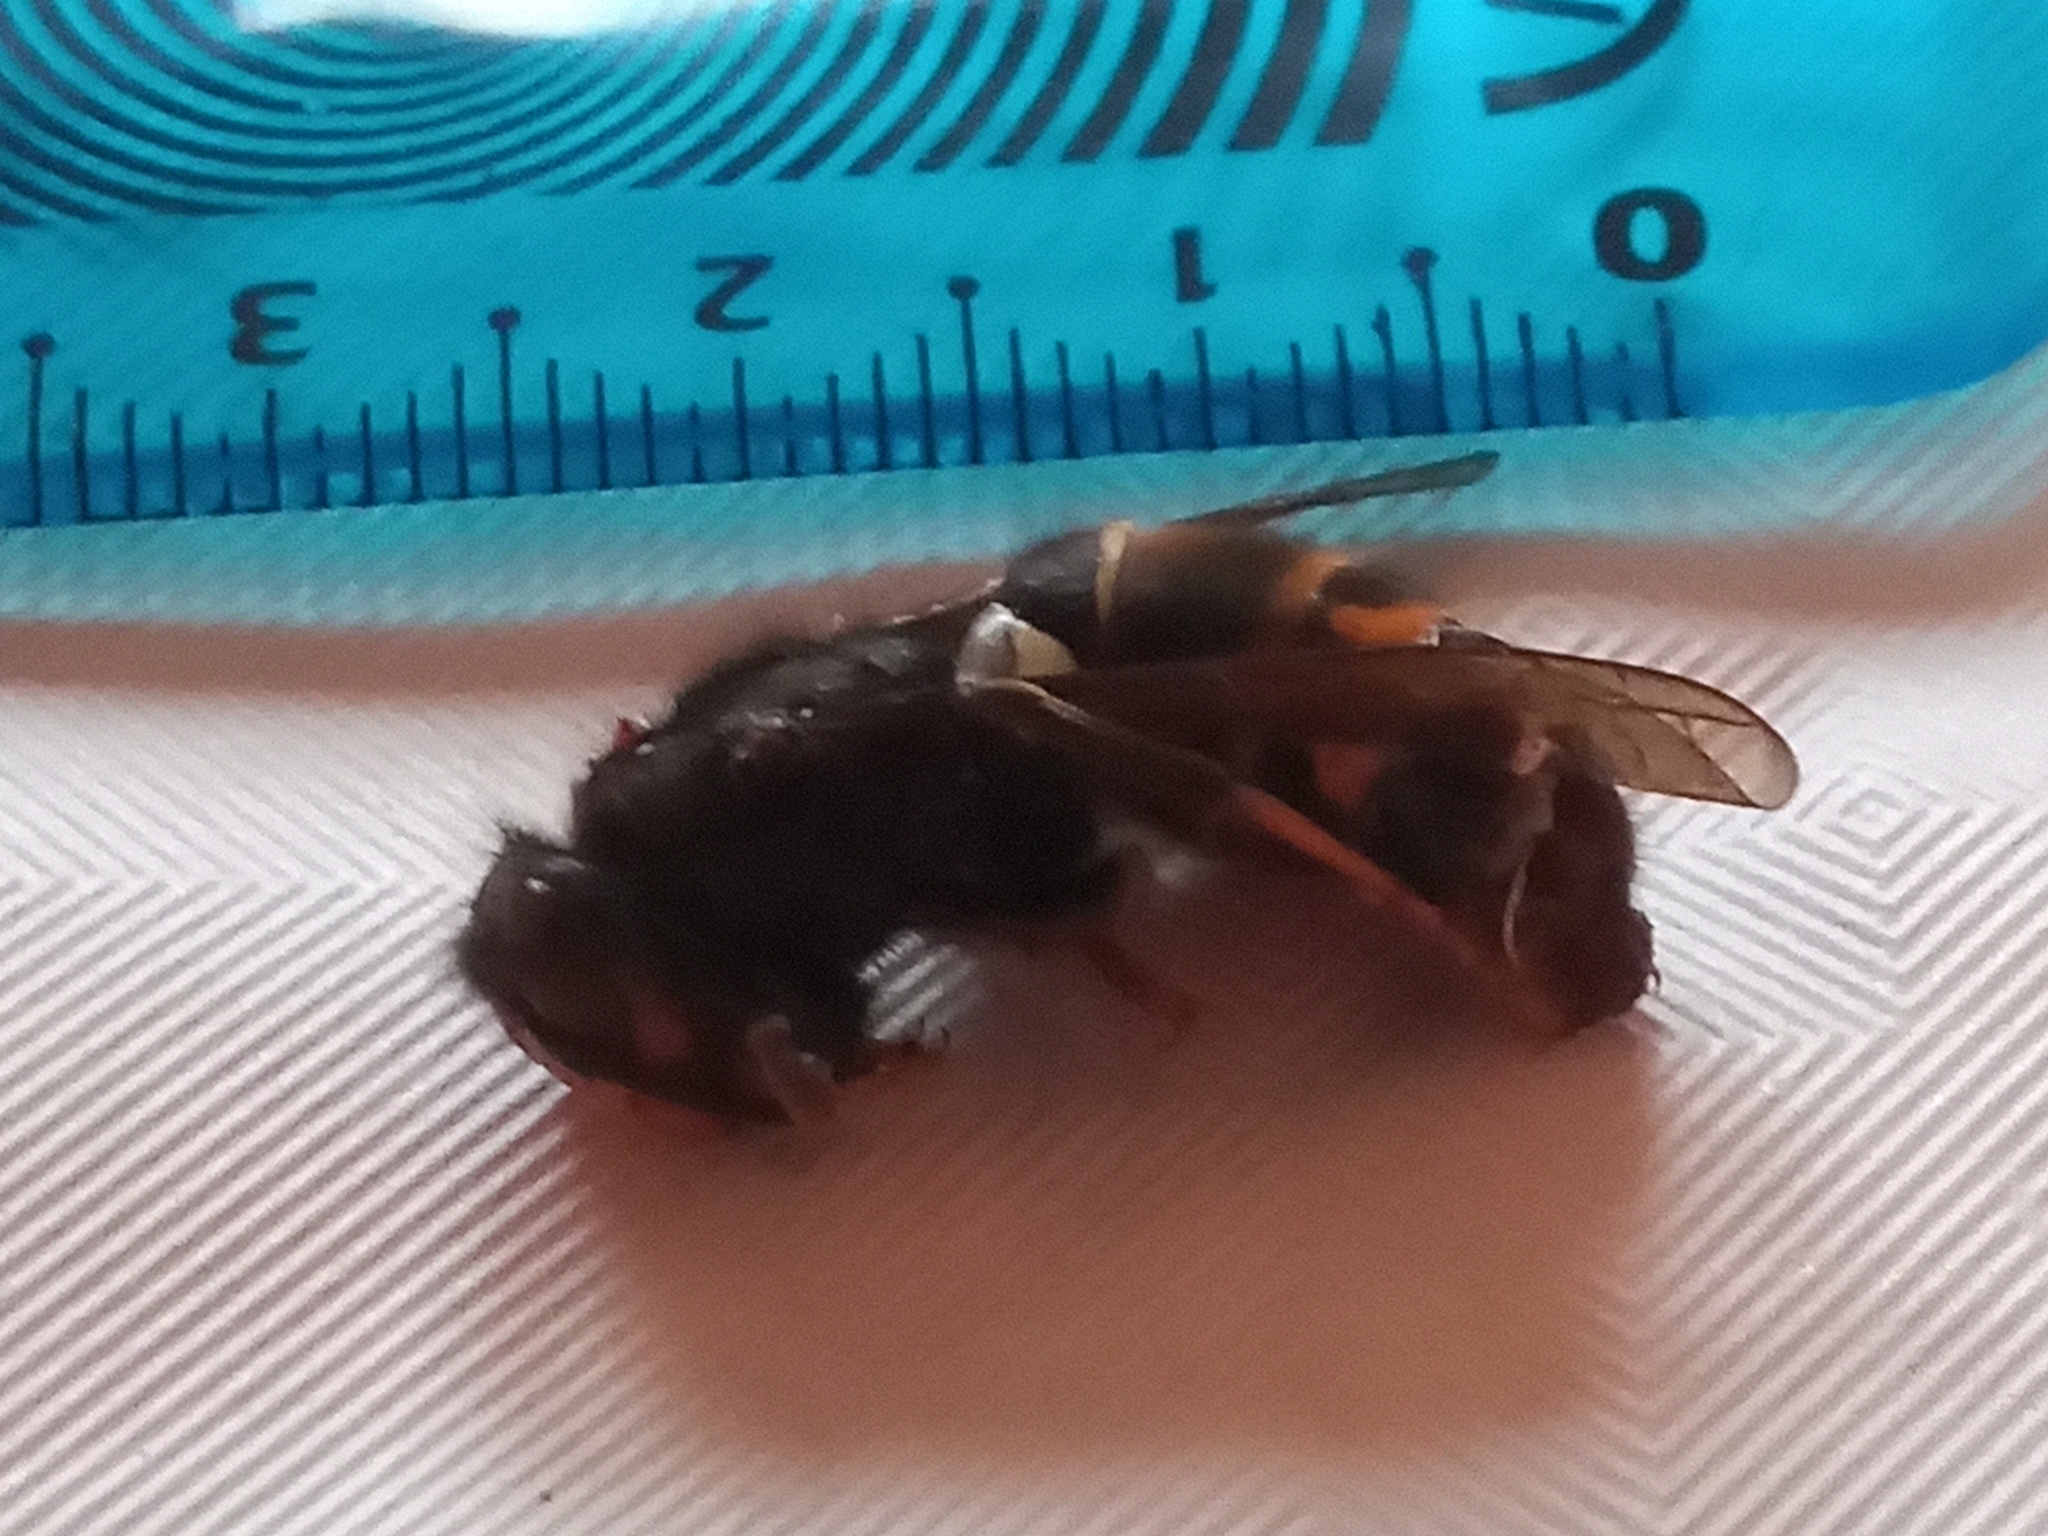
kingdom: Animalia
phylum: Arthropoda
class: Insecta
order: Hymenoptera
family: Vespidae
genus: Vespa
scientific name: Vespa velutina
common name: Asian hornet
